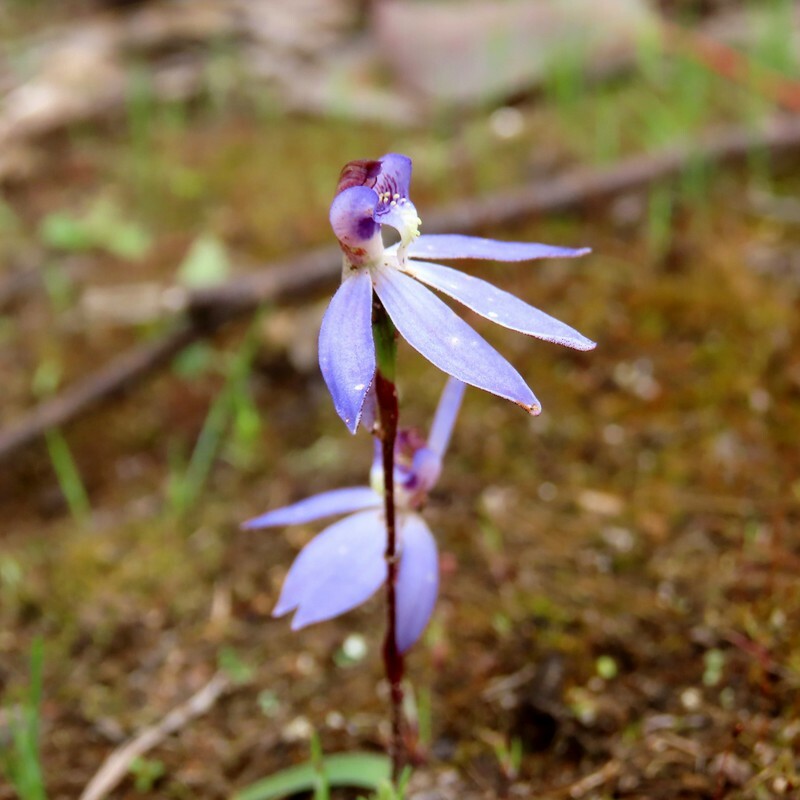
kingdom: Plantae
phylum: Tracheophyta
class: Liliopsida
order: Asparagales
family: Orchidaceae
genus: Caladenia
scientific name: Caladenia caerulea
